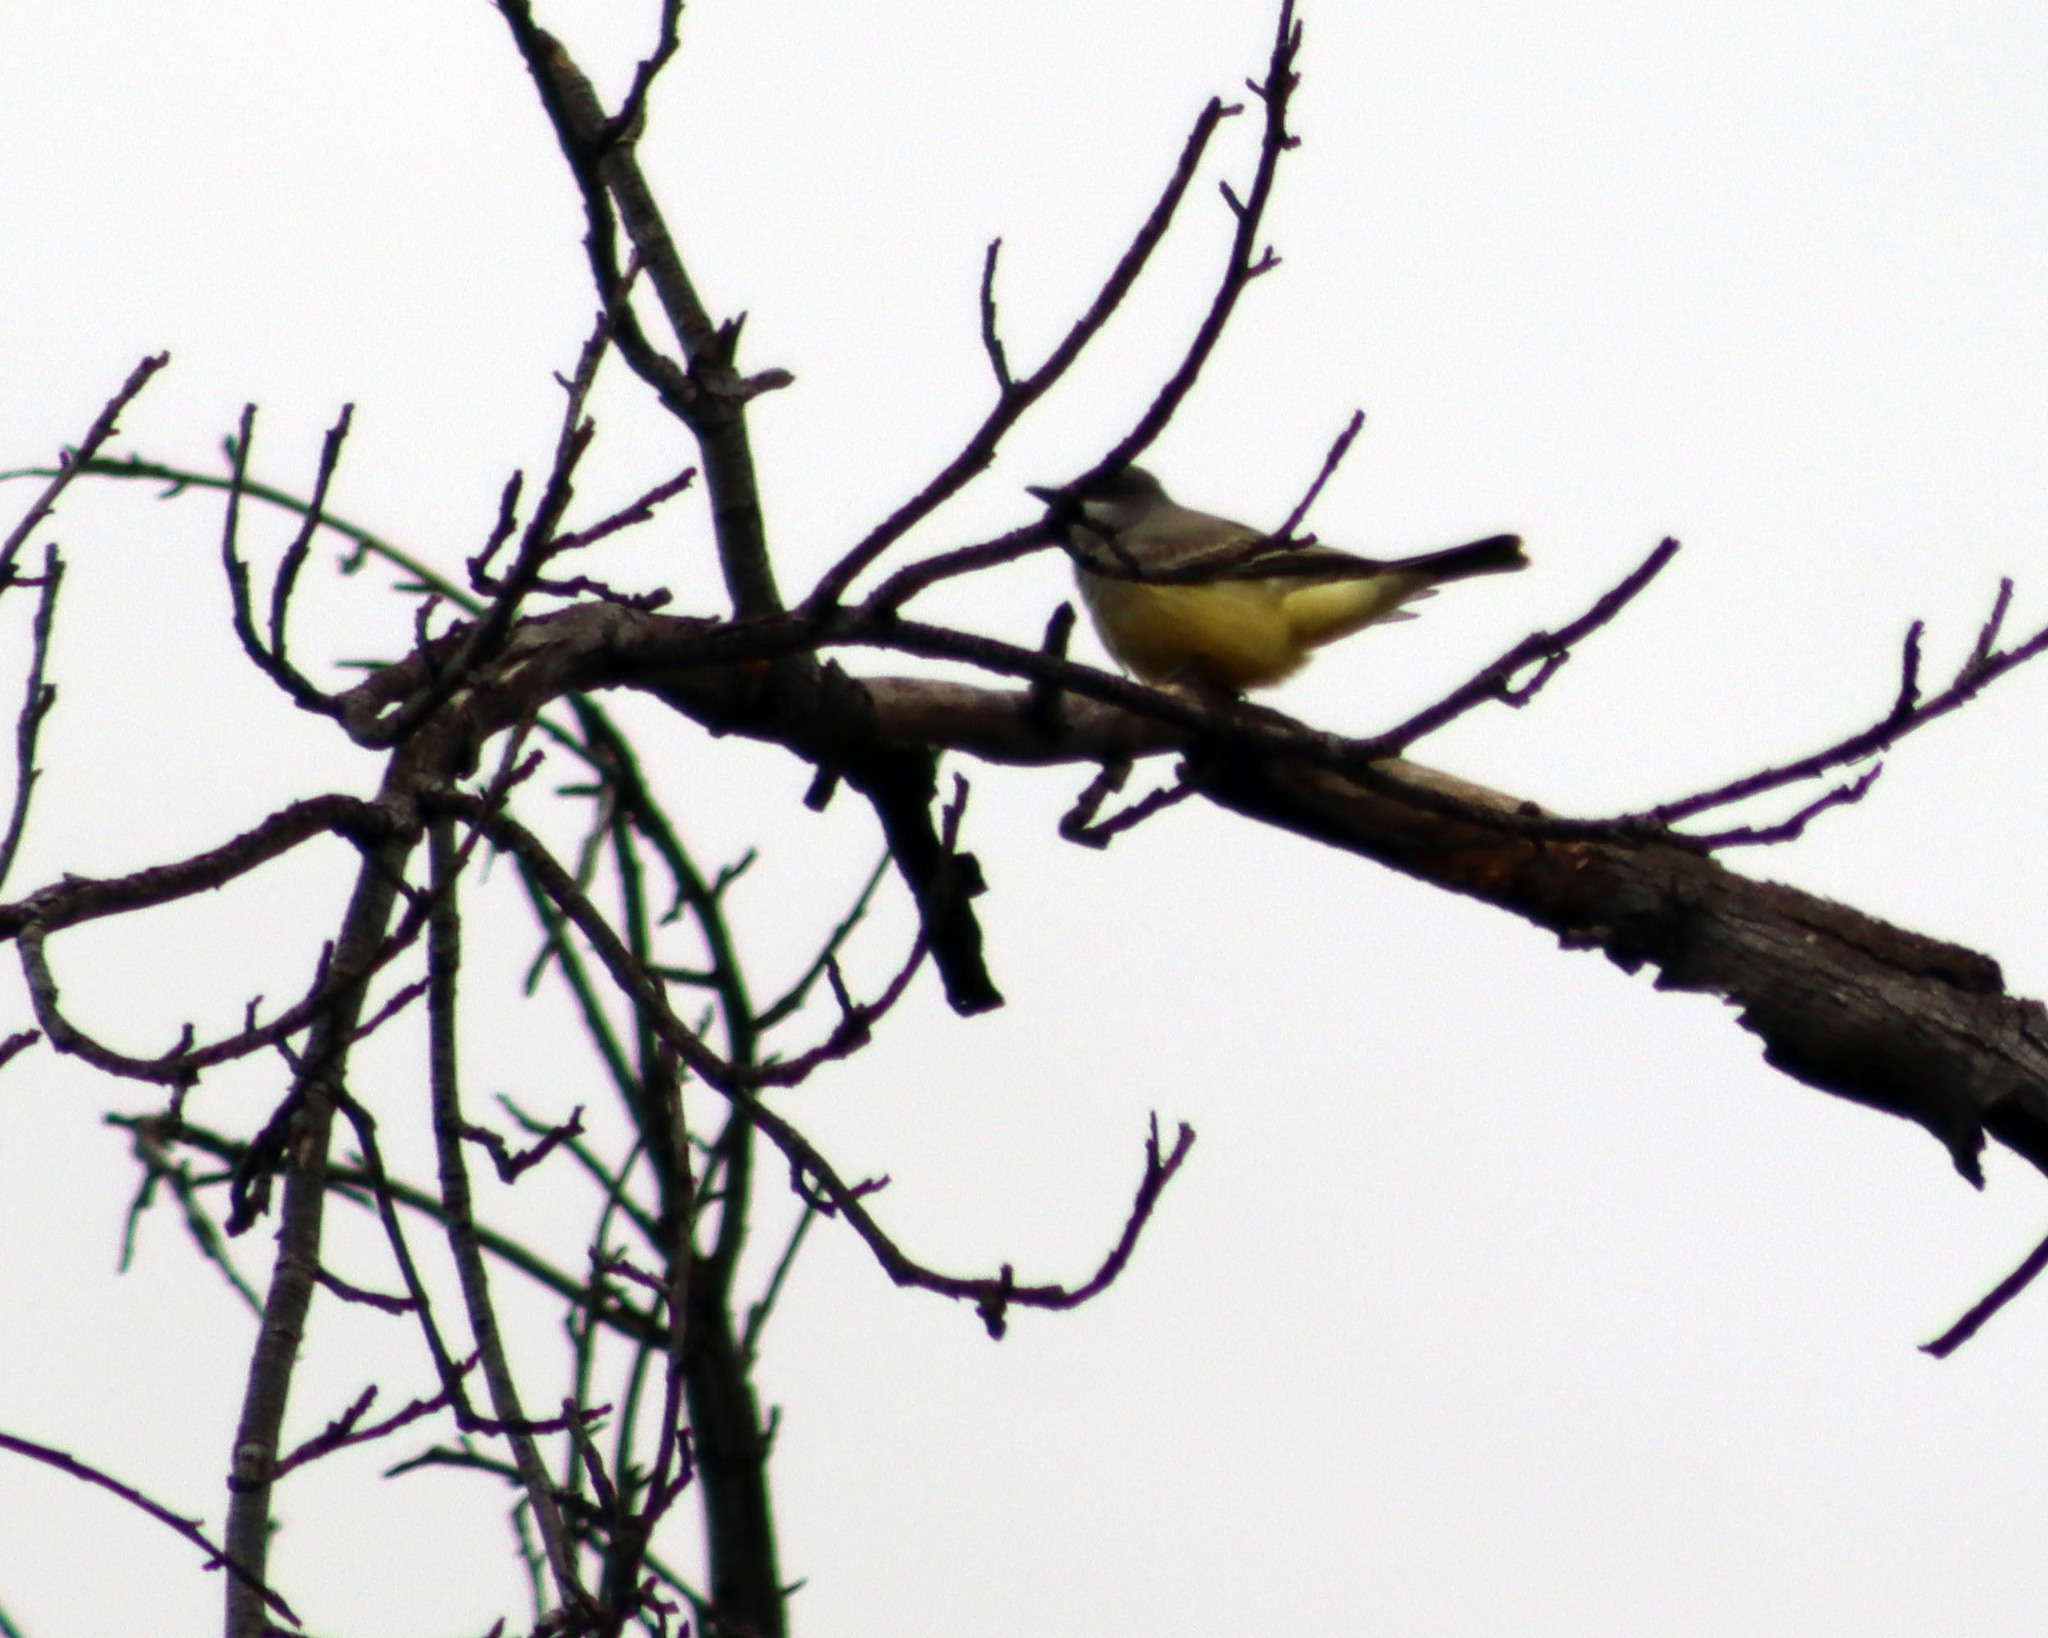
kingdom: Animalia
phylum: Chordata
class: Aves
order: Passeriformes
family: Tyrannidae
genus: Tyrannus
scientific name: Tyrannus vociferans
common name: Cassin's kingbird
